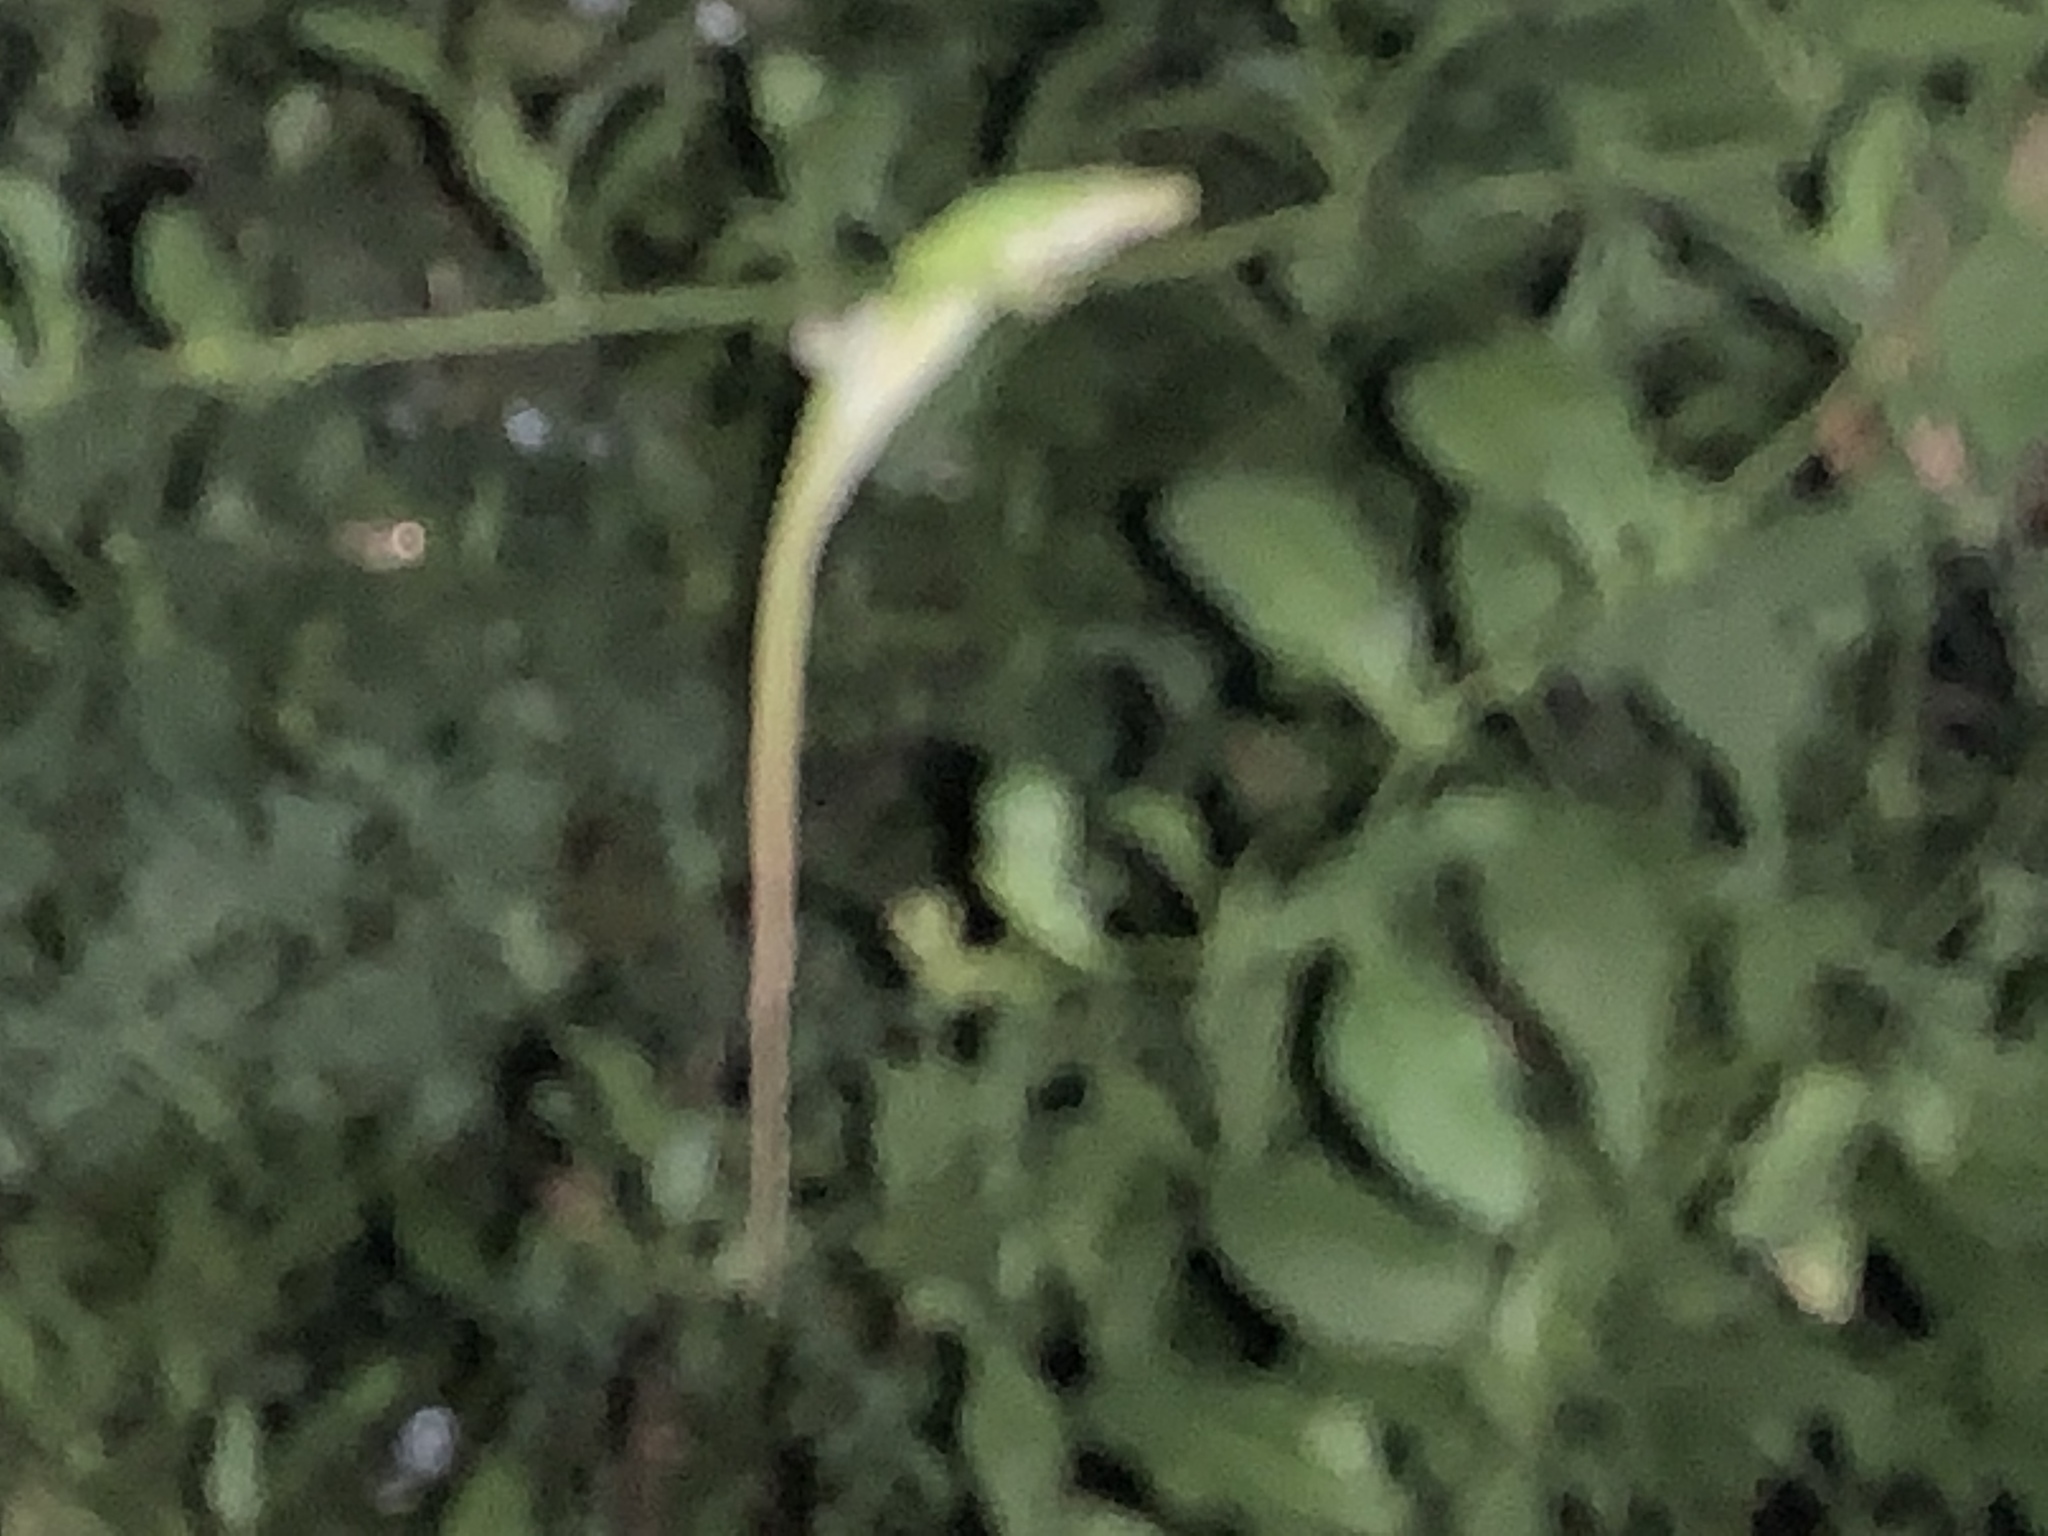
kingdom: Animalia
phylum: Chordata
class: Squamata
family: Dactyloidae
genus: Anolis
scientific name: Anolis carolinensis
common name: Green anole
